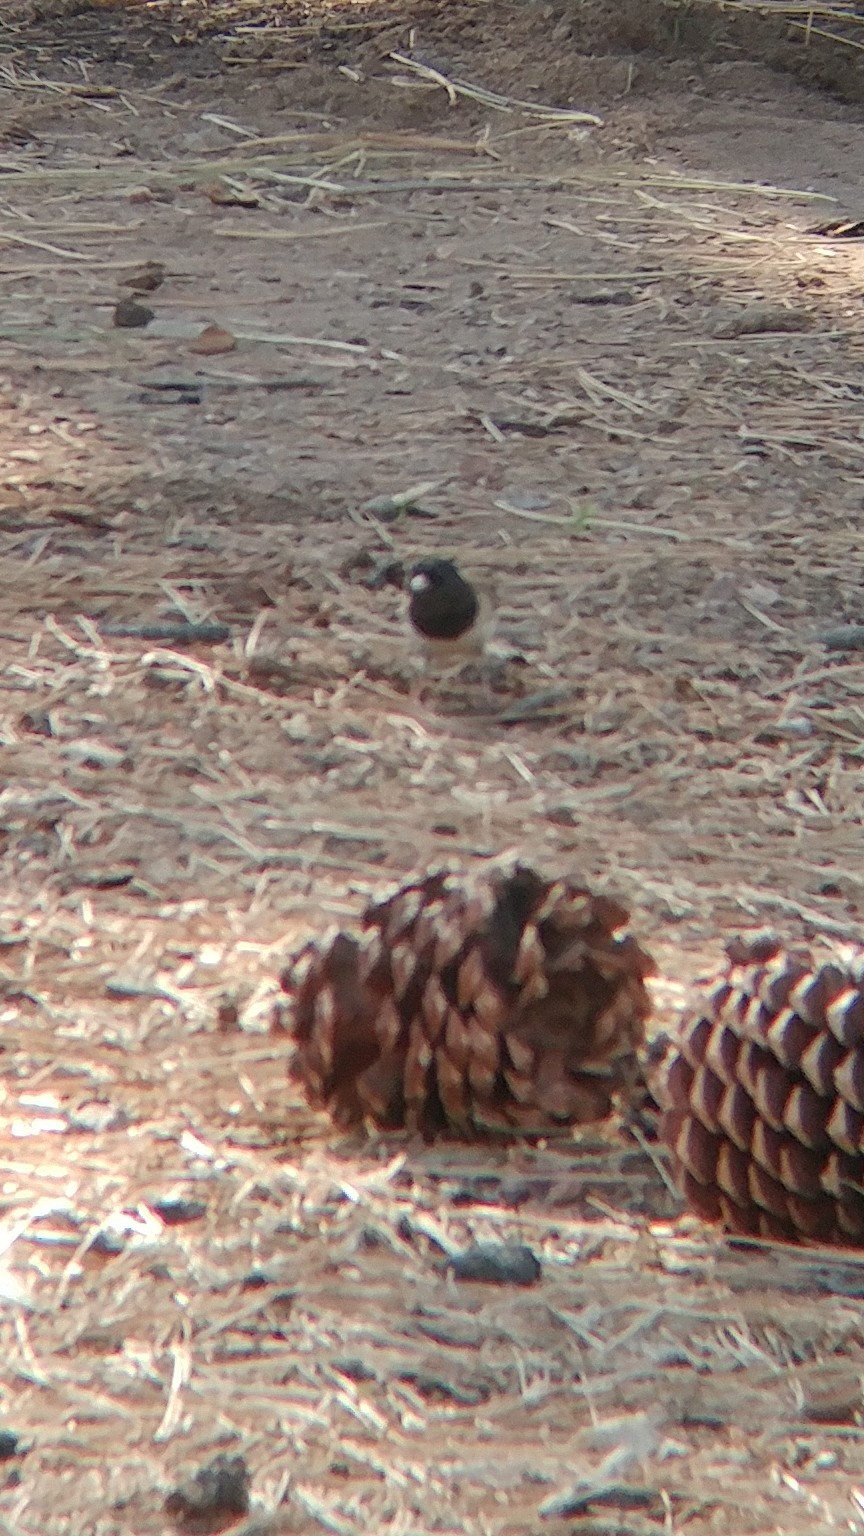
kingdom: Animalia
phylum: Chordata
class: Aves
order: Passeriformes
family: Passerellidae
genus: Junco
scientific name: Junco hyemalis
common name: Dark-eyed junco
